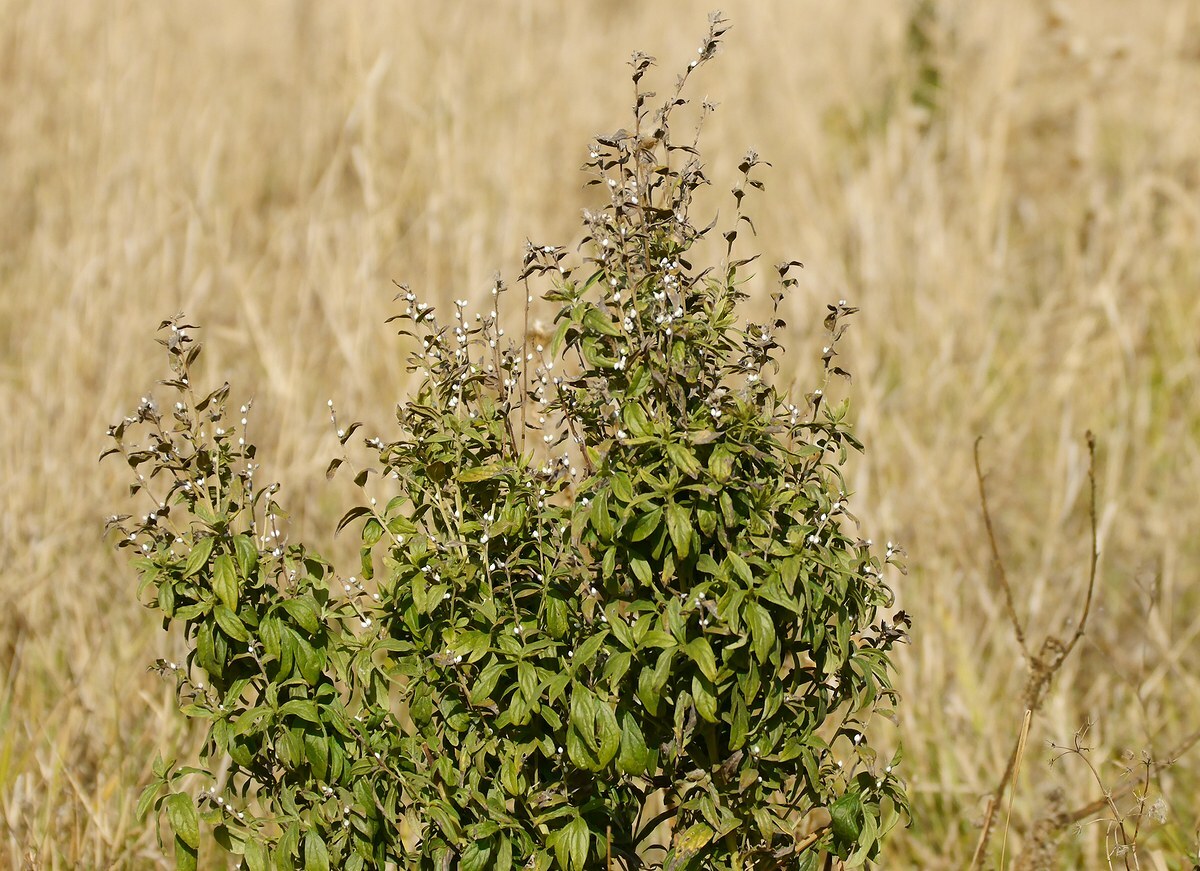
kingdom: Plantae
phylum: Tracheophyta
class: Magnoliopsida
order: Boraginales
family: Boraginaceae
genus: Lithospermum
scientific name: Lithospermum officinale
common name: Common gromwell
